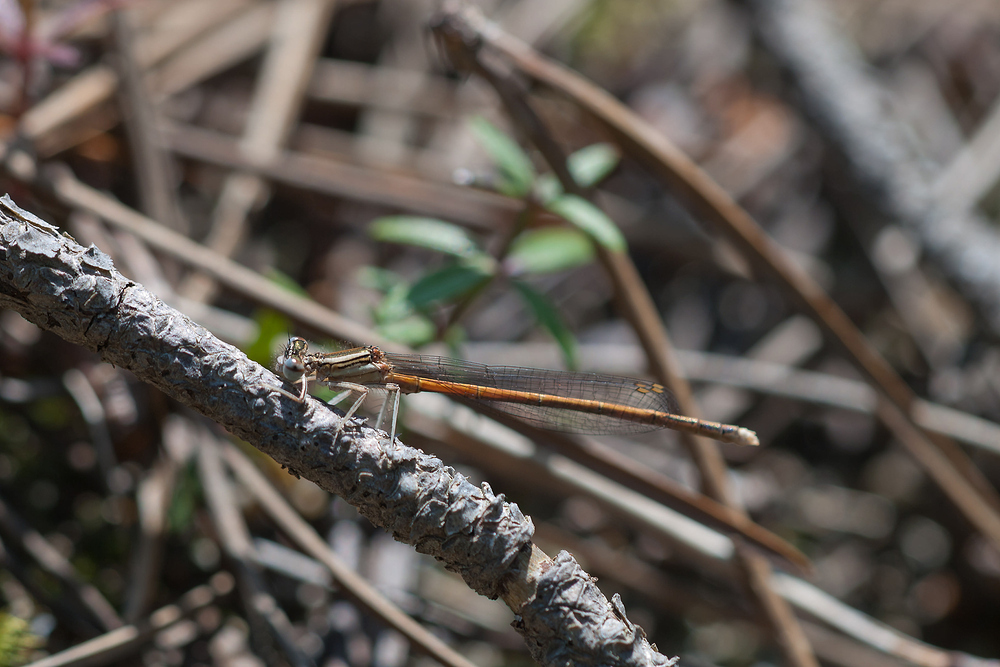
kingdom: Animalia
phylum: Arthropoda
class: Insecta
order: Odonata
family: Platycnemididae
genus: Platycnemis
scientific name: Platycnemis acutipennis
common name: Orange featherleg
